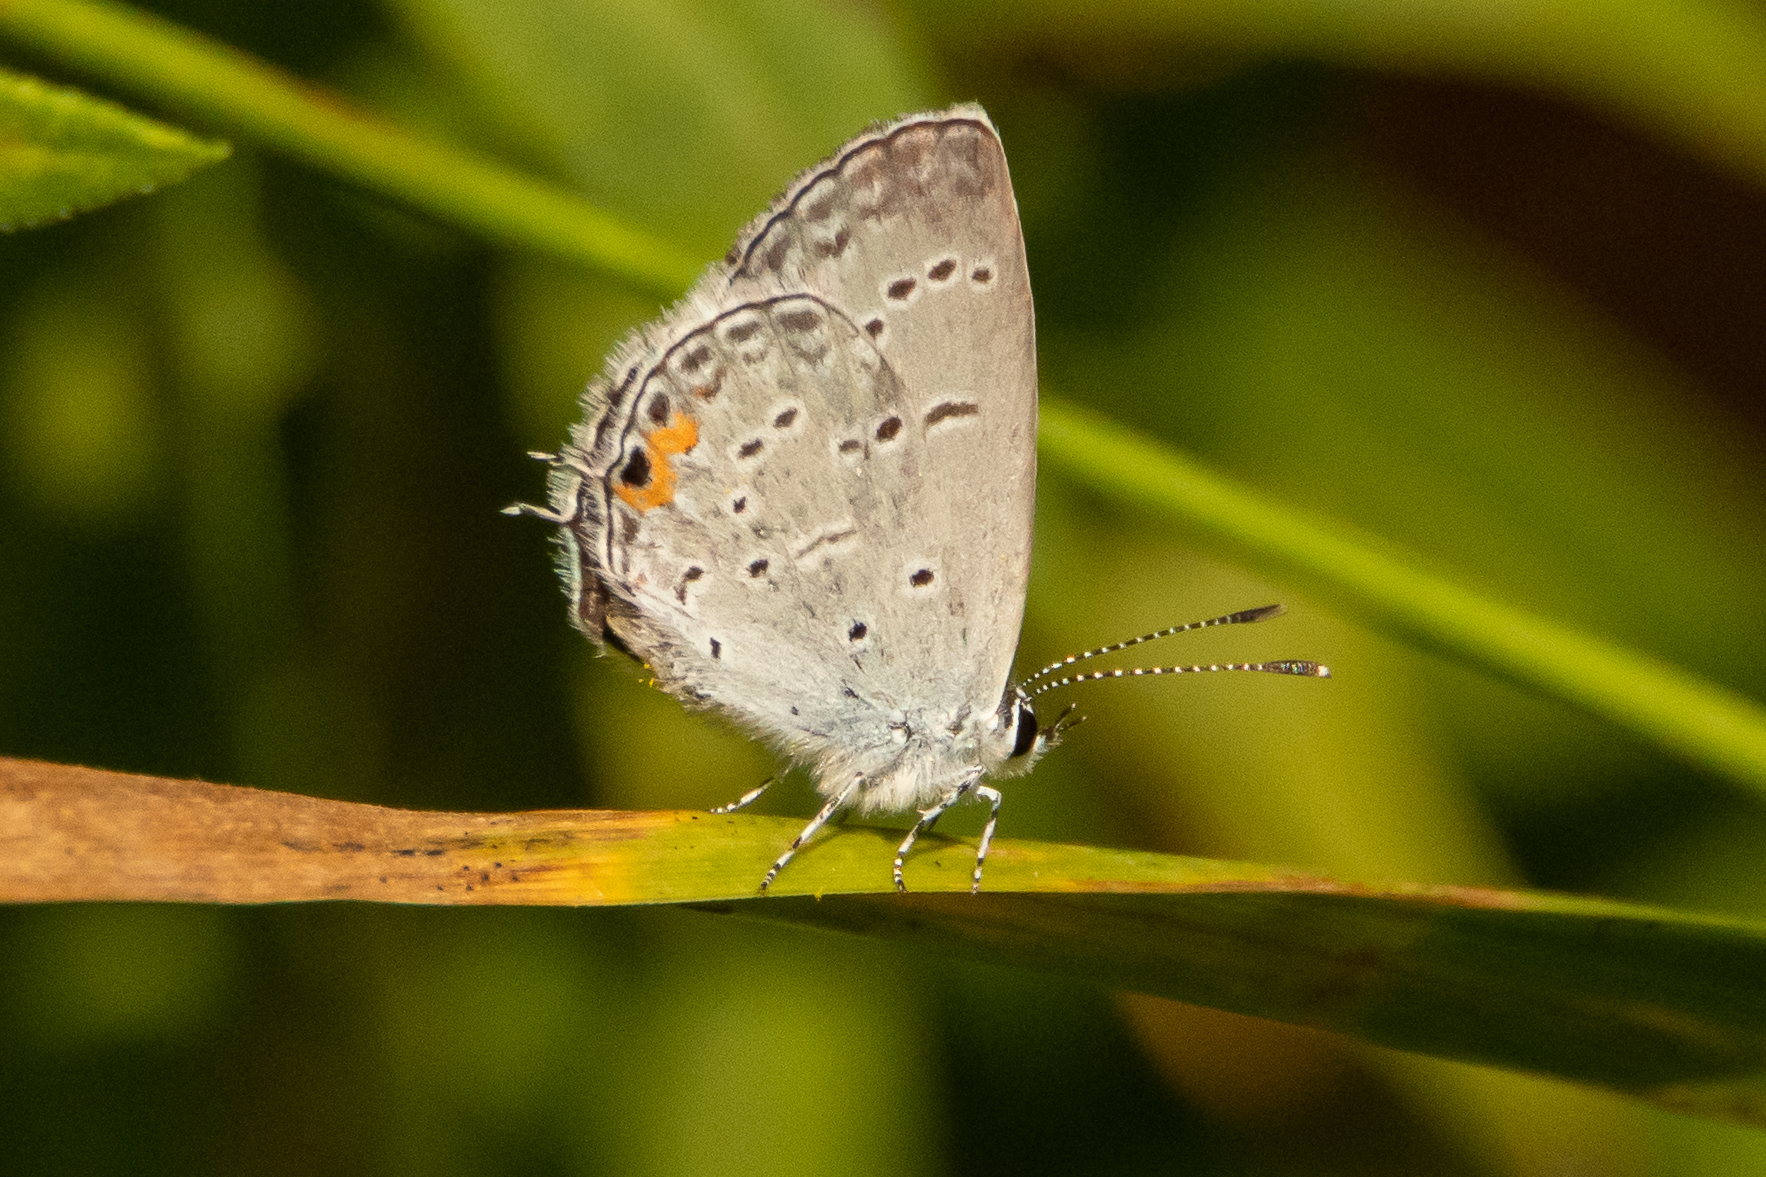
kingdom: Animalia
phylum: Arthropoda
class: Insecta
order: Lepidoptera
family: Lycaenidae
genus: Elkalyce
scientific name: Elkalyce comyntas
